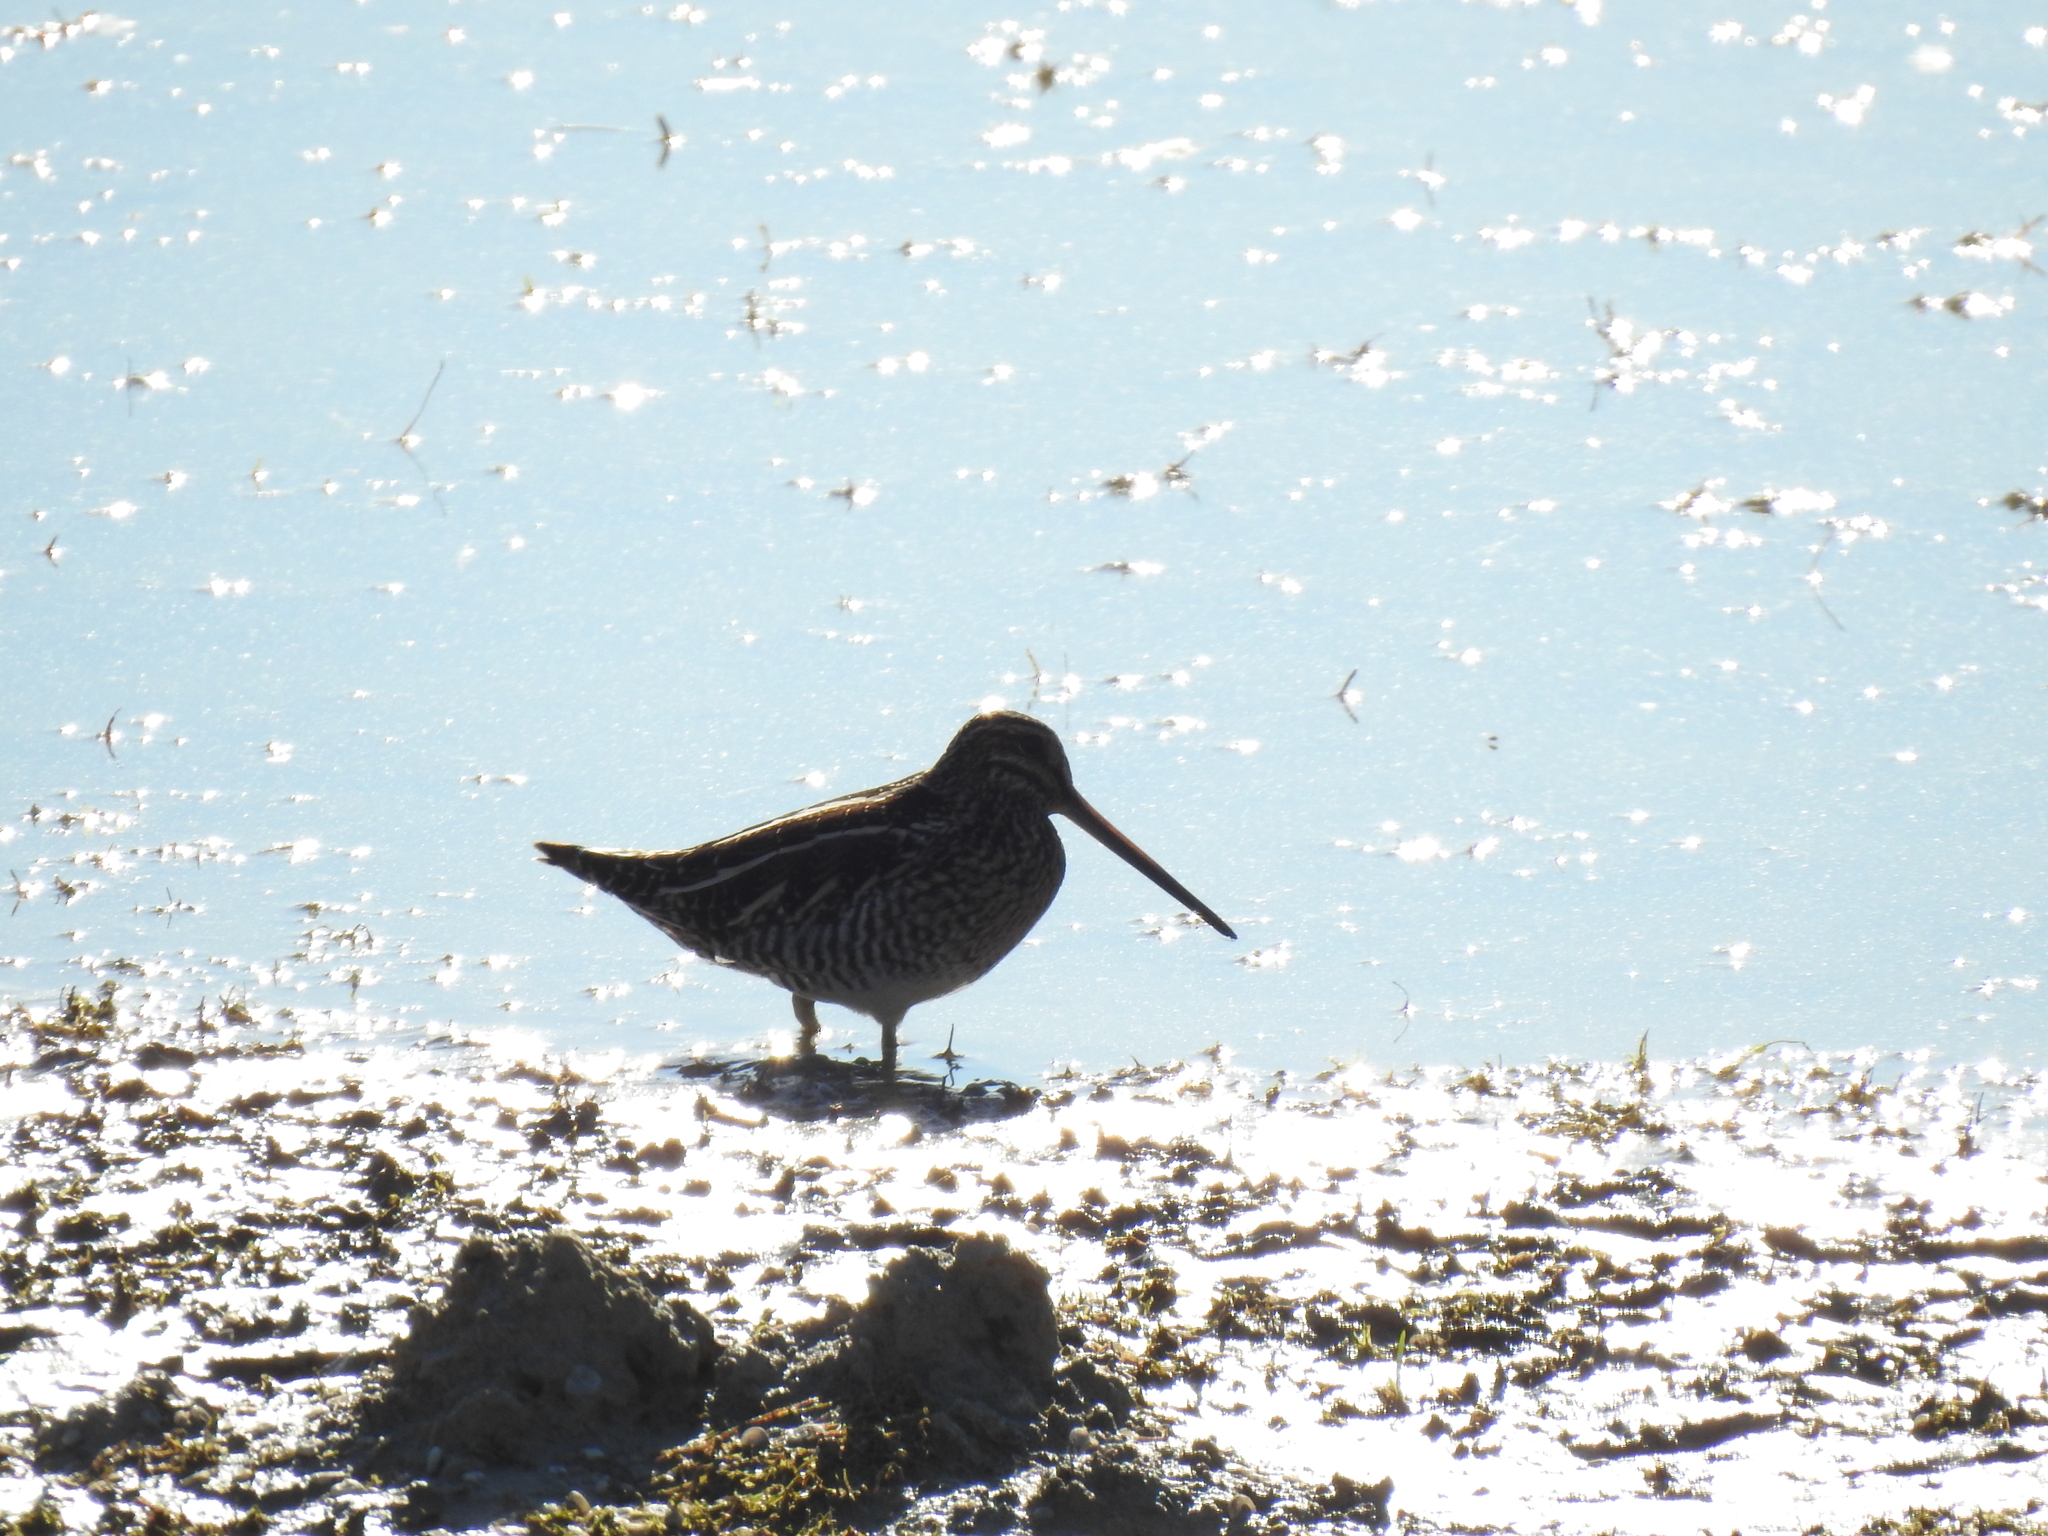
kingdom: Animalia
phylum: Chordata
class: Aves
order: Charadriiformes
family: Scolopacidae
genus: Gallinago
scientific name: Gallinago delicata
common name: Wilson's snipe
